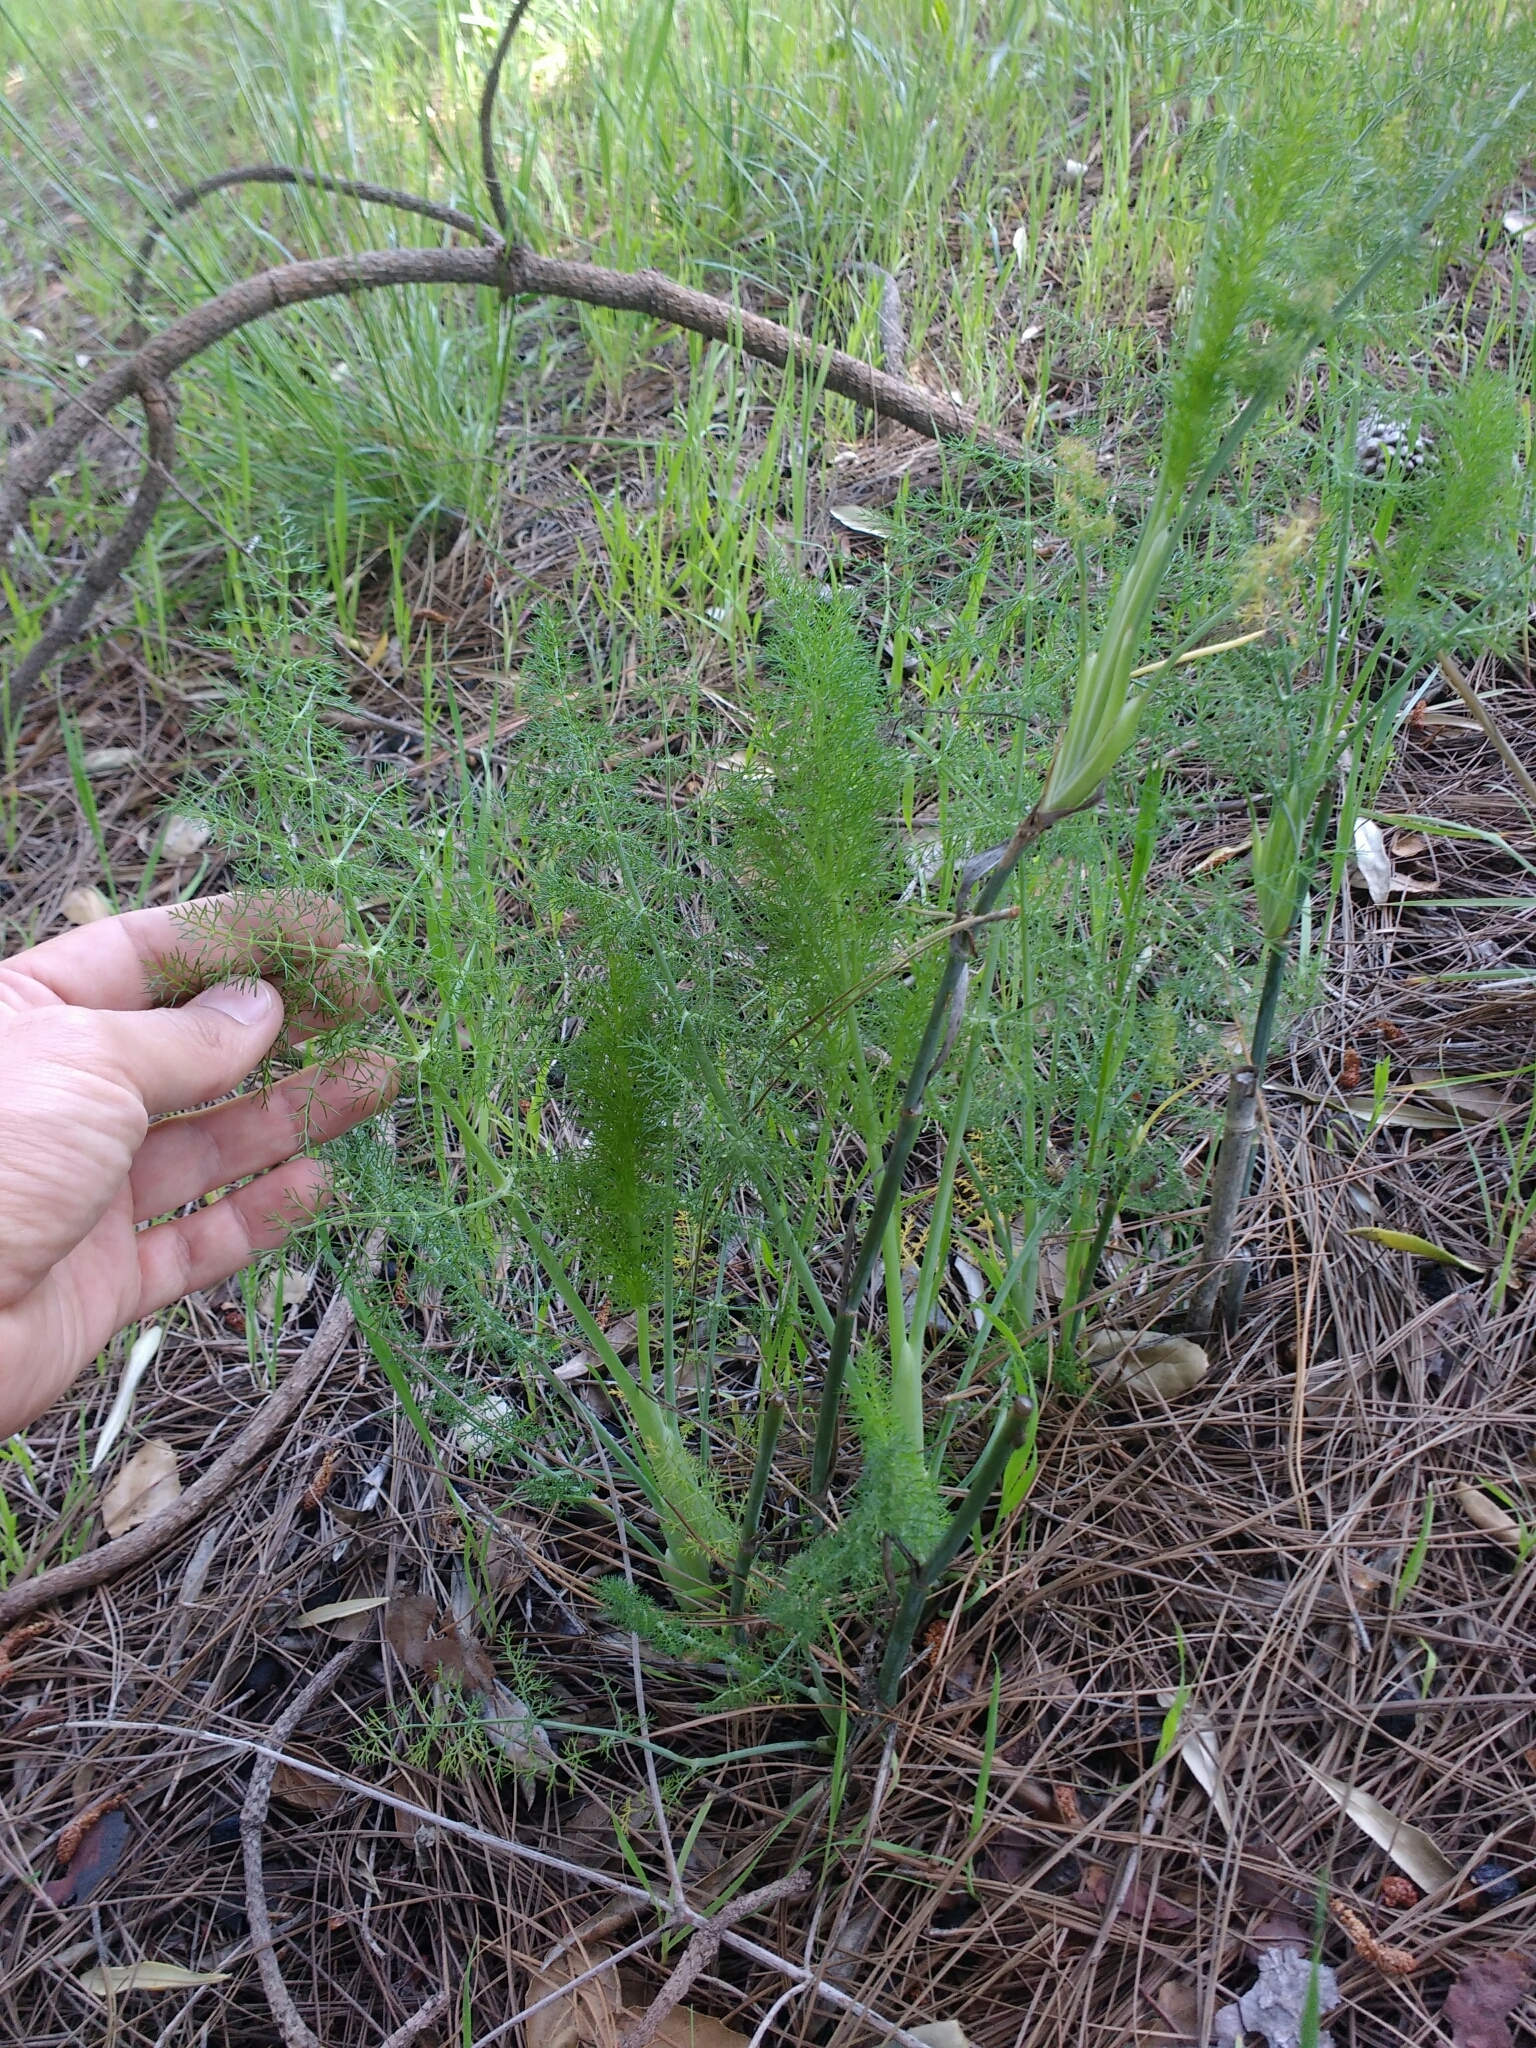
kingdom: Plantae
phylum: Tracheophyta
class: Magnoliopsida
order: Apiales
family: Apiaceae
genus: Foeniculum
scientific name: Foeniculum vulgare
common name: Fennel
